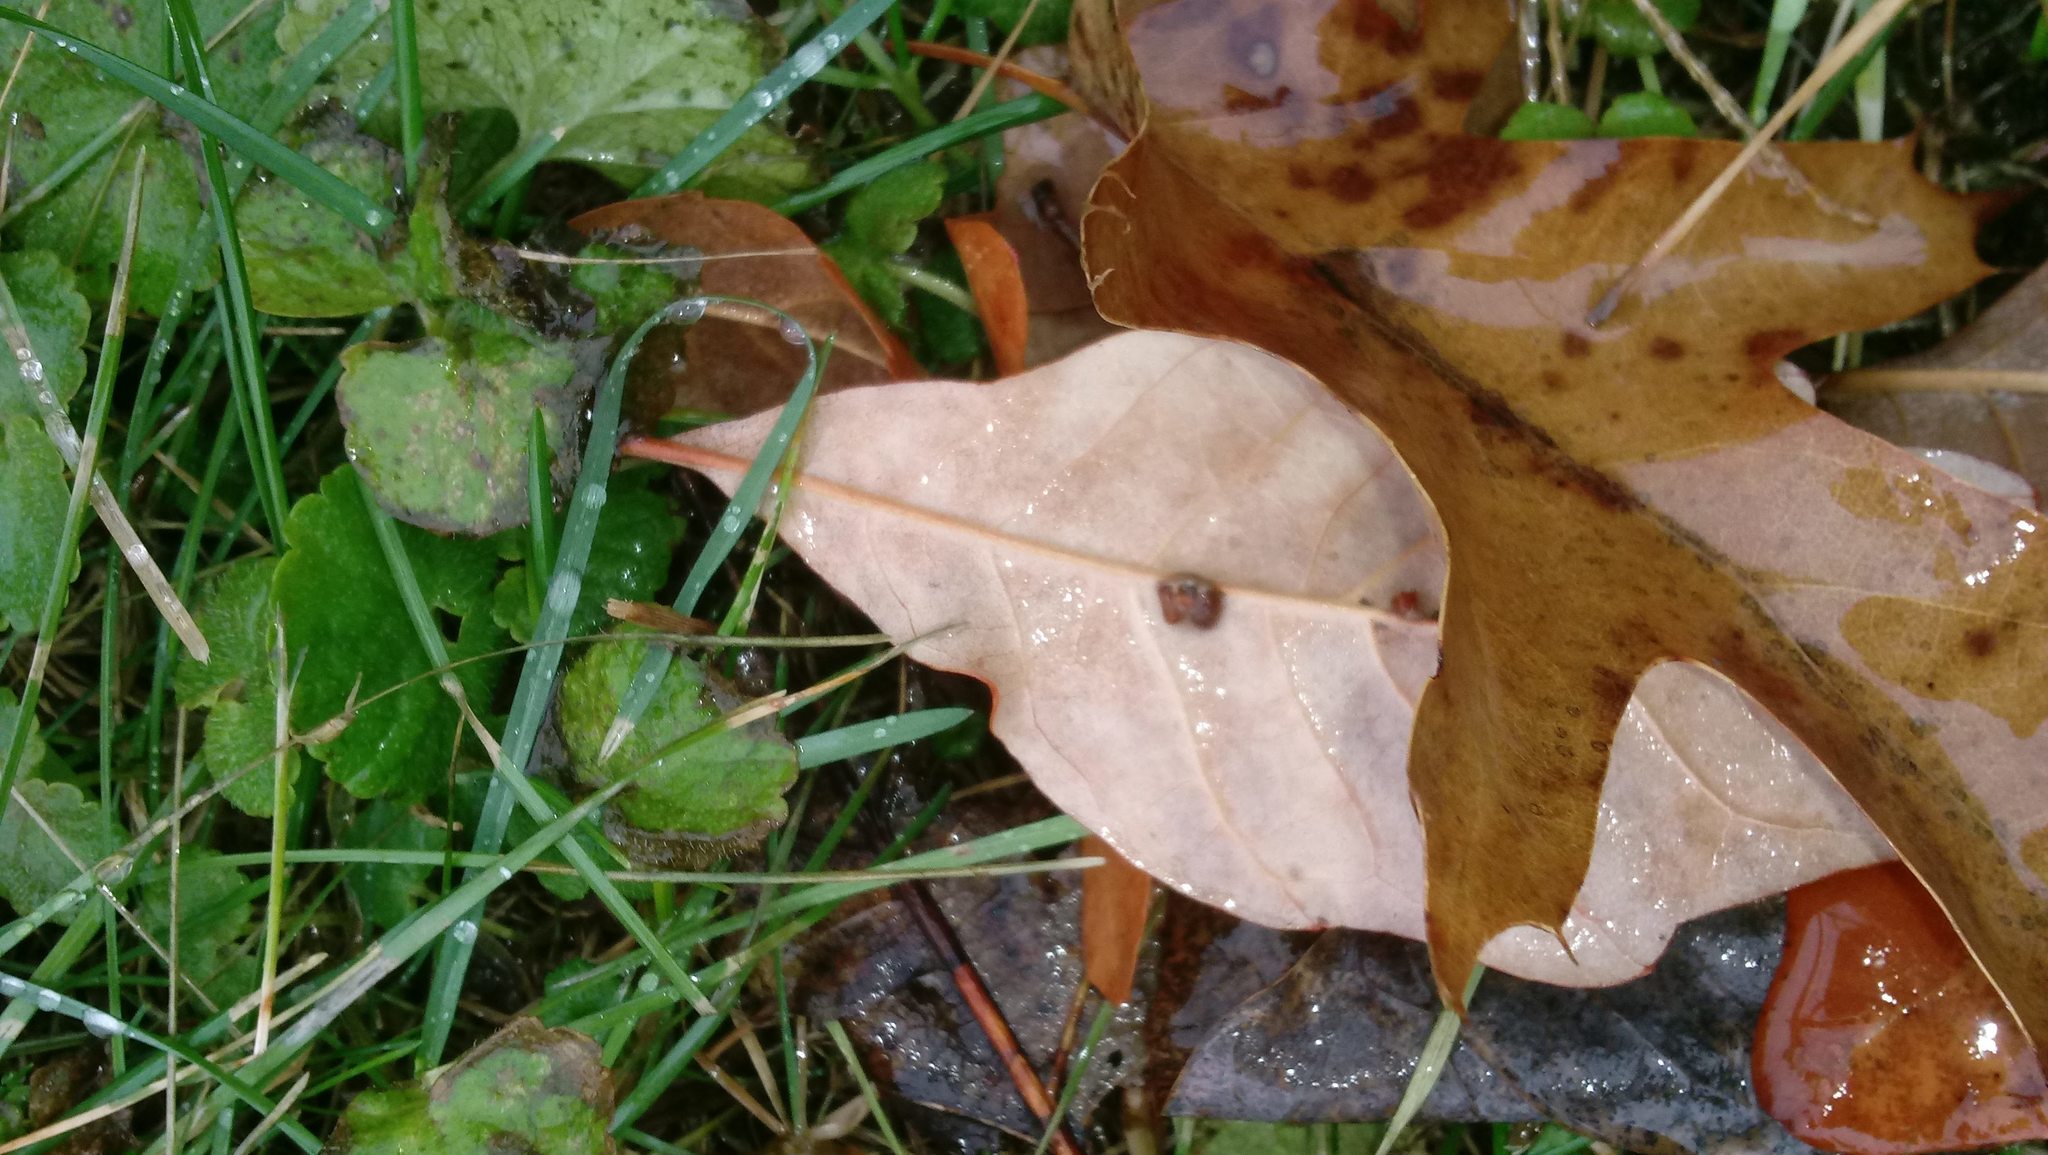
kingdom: Animalia
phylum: Arthropoda
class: Insecta
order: Hymenoptera
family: Cynipidae
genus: Andricus
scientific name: Andricus Druon ignotum
